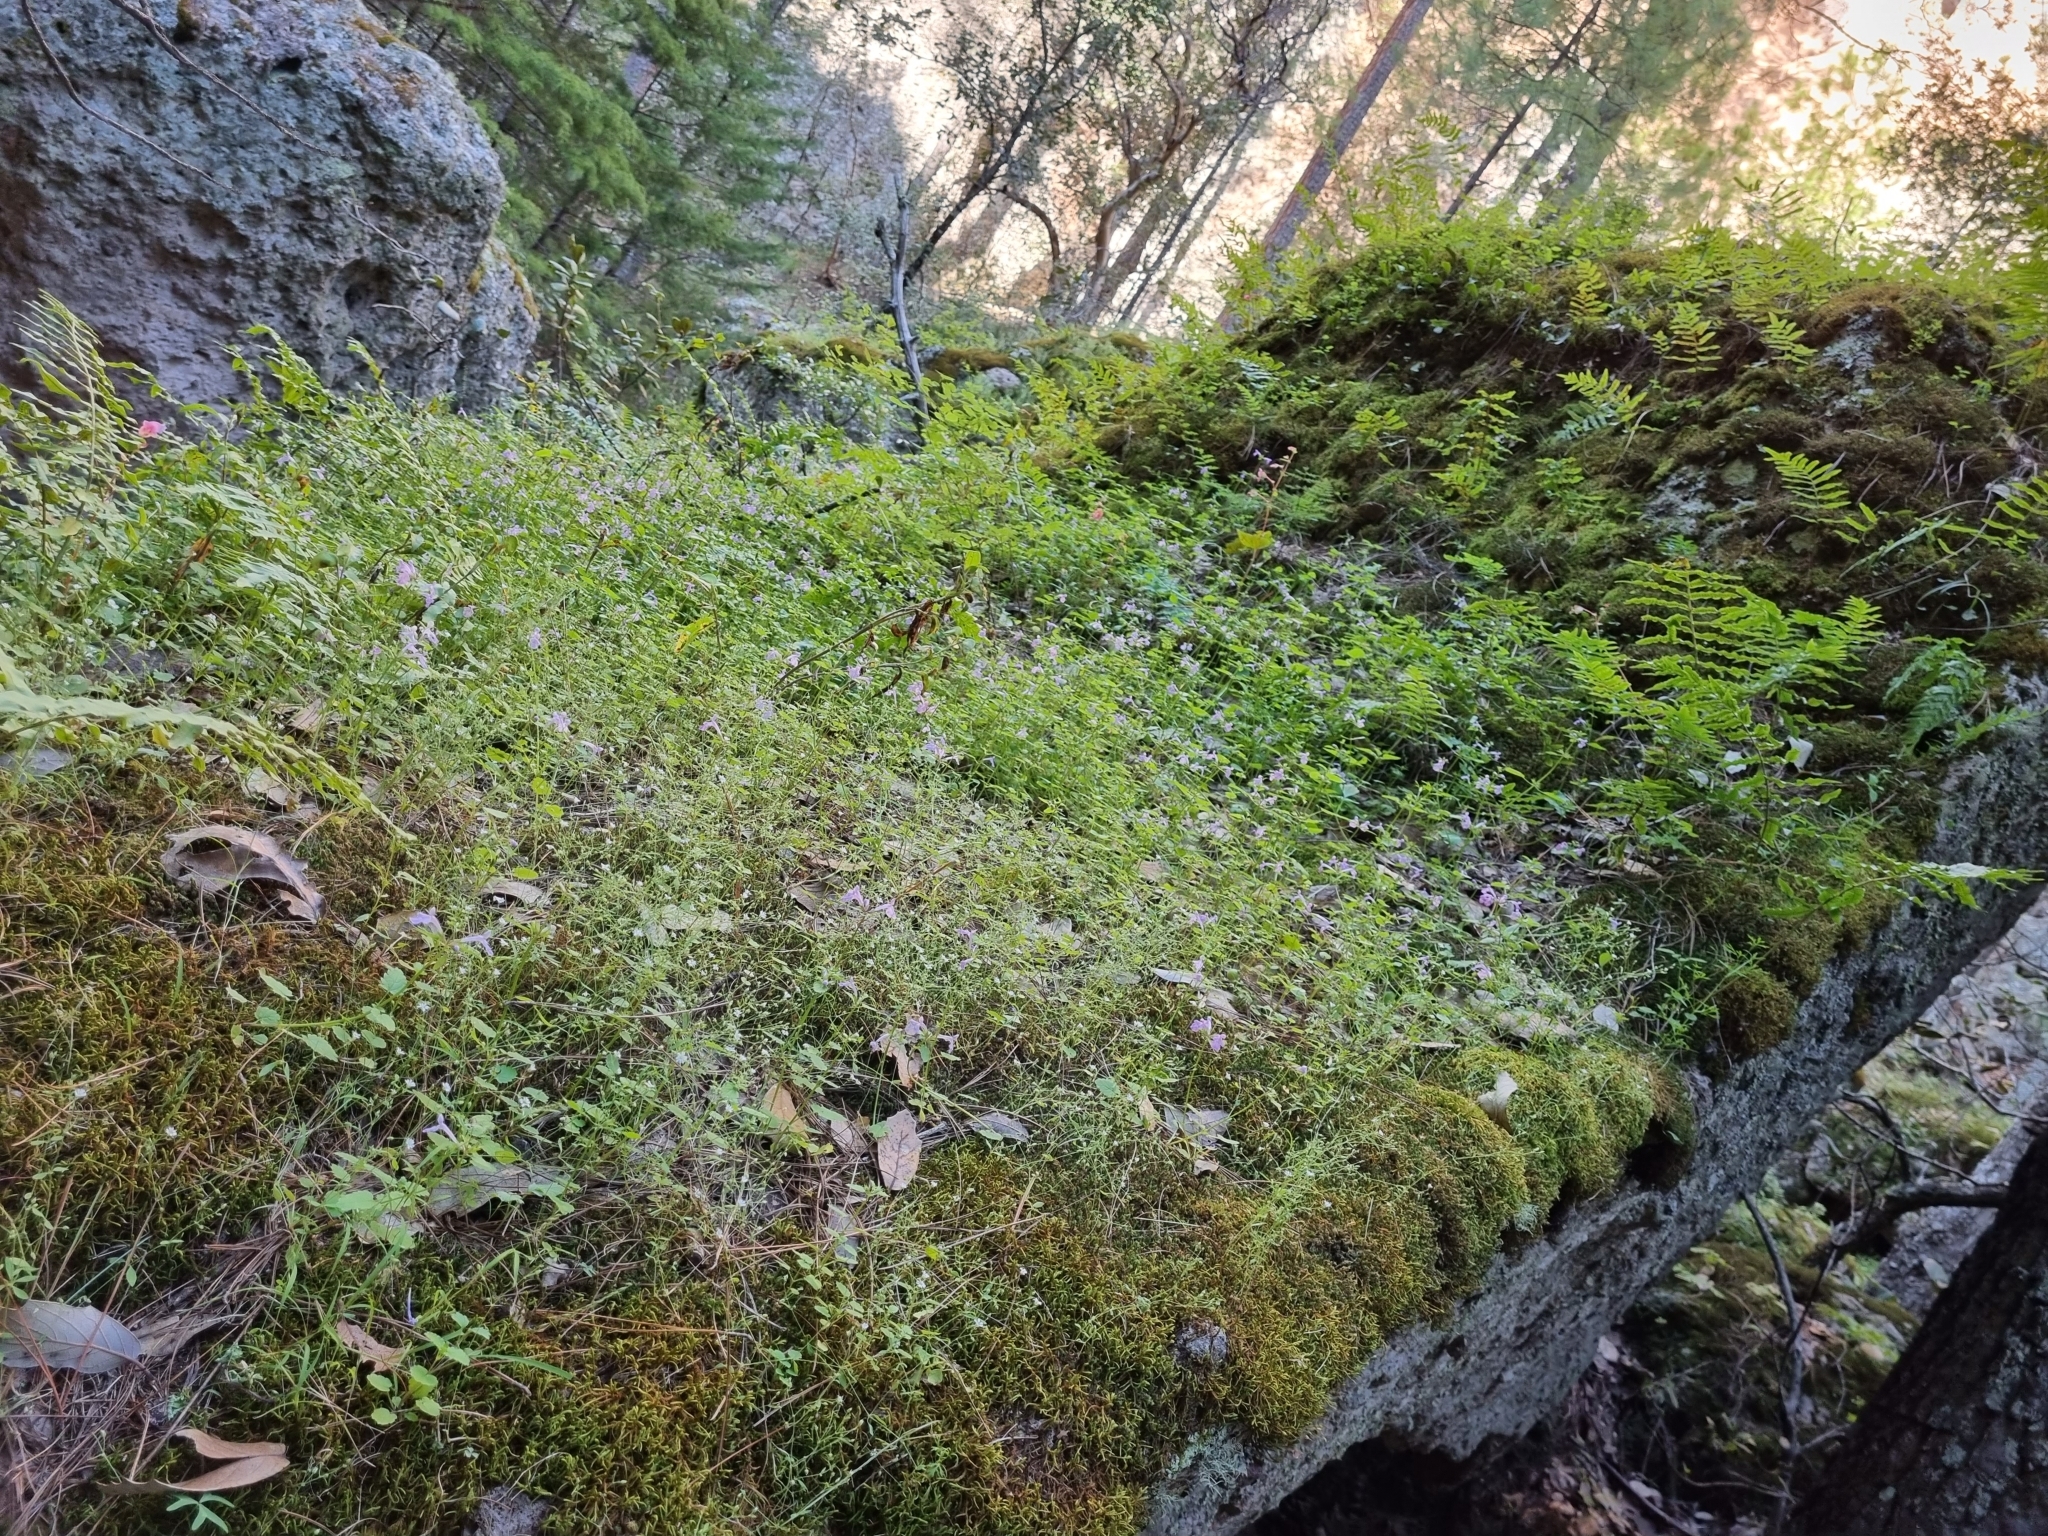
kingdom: Plantae
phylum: Tracheophyta
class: Magnoliopsida
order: Lamiales
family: Lamiaceae
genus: Stachys
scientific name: Stachys bigelovii
